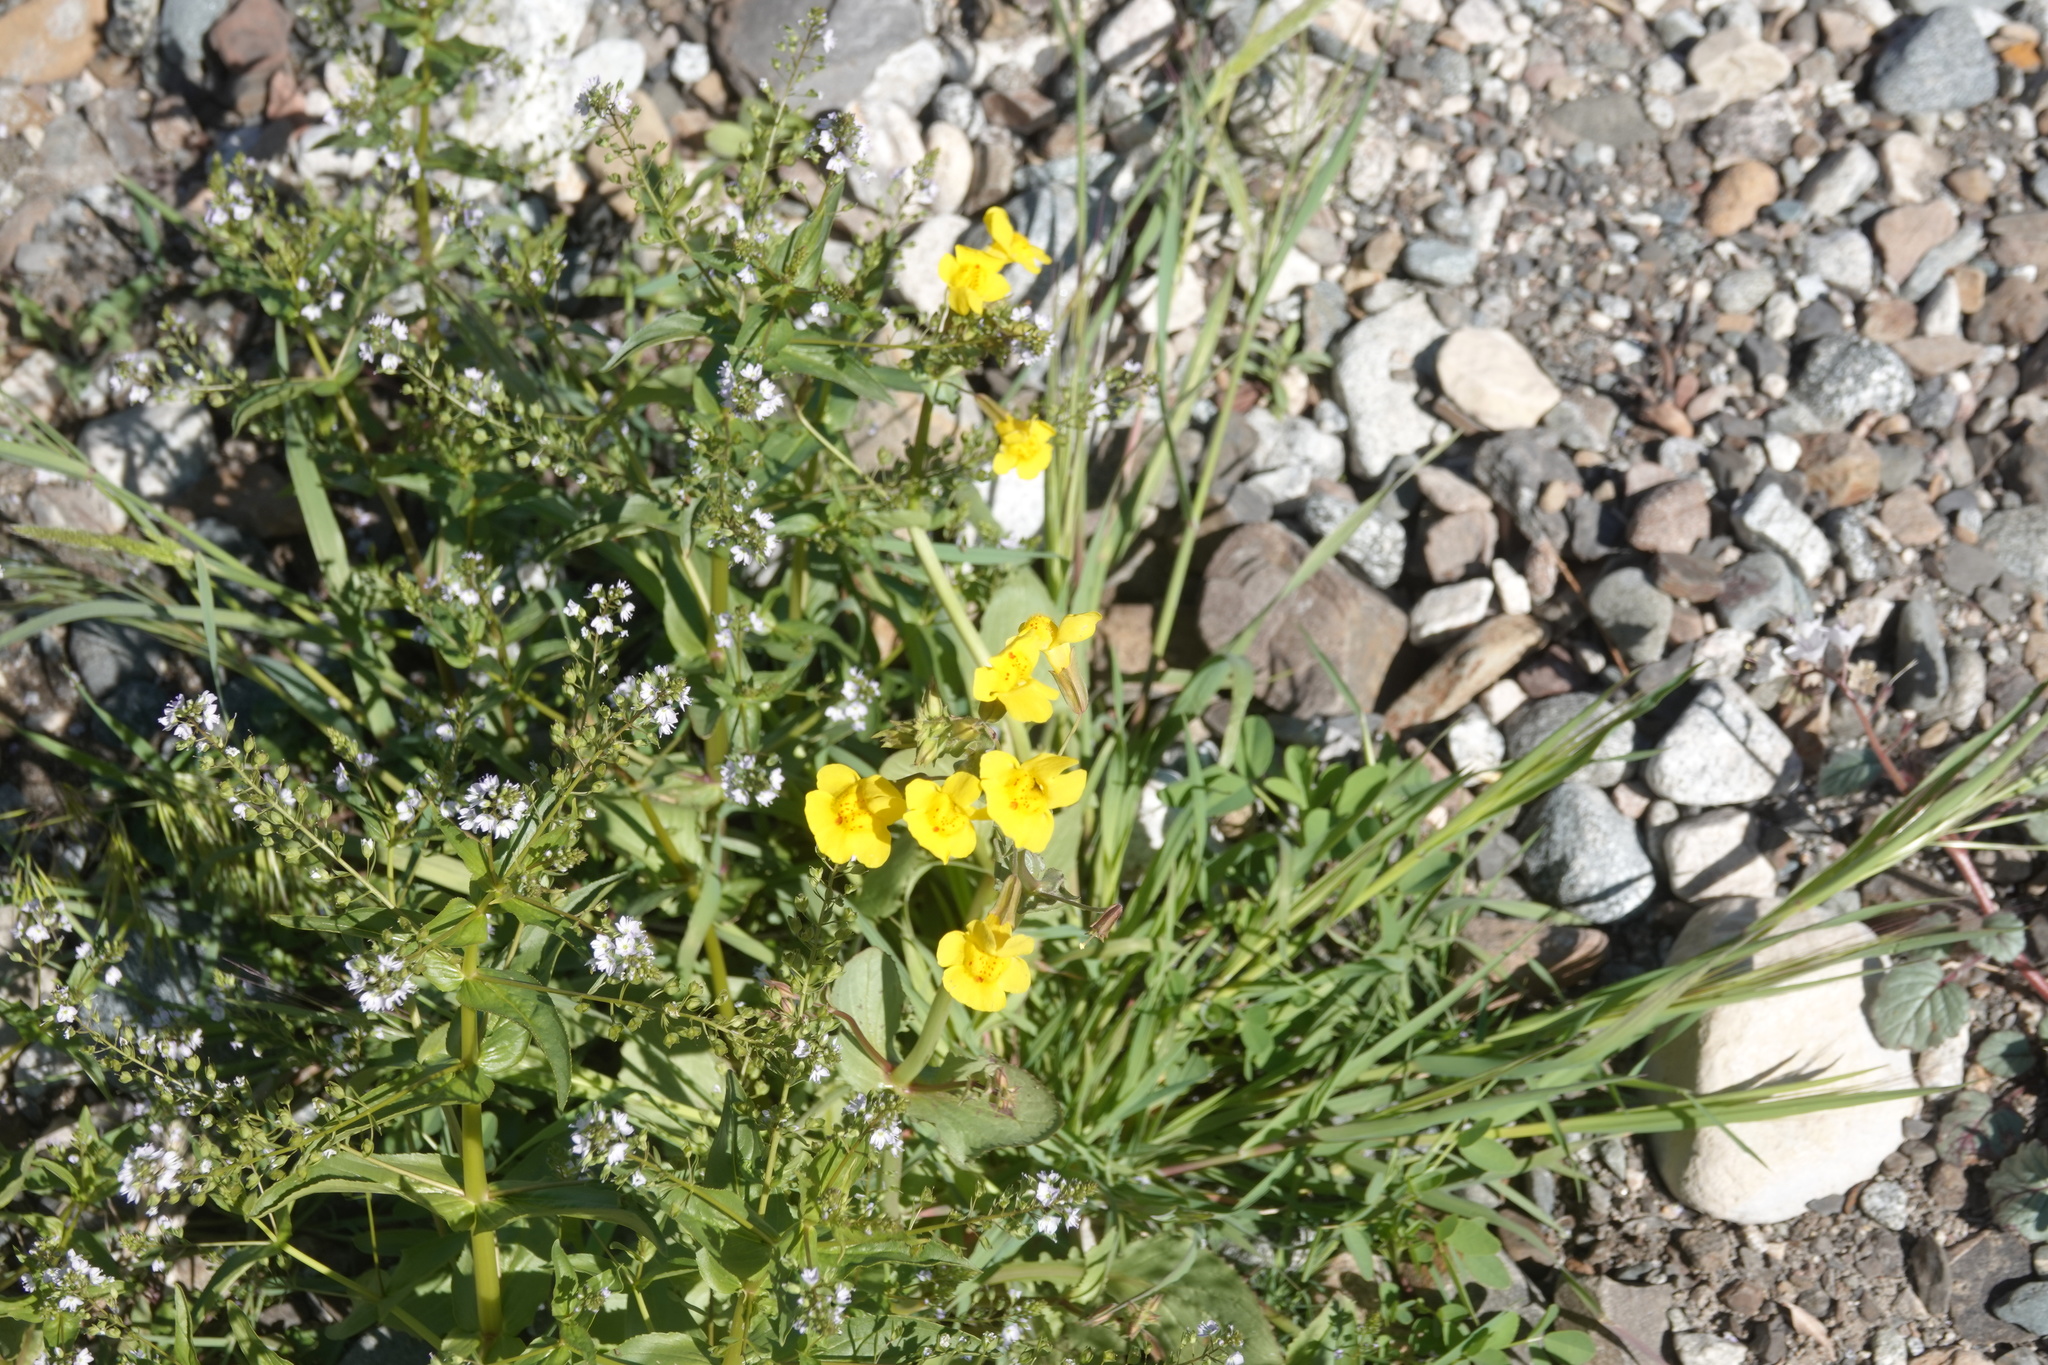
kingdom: Plantae
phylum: Tracheophyta
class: Magnoliopsida
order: Lamiales
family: Phrymaceae
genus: Erythranthe
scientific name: Erythranthe guttata
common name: Monkeyflower
